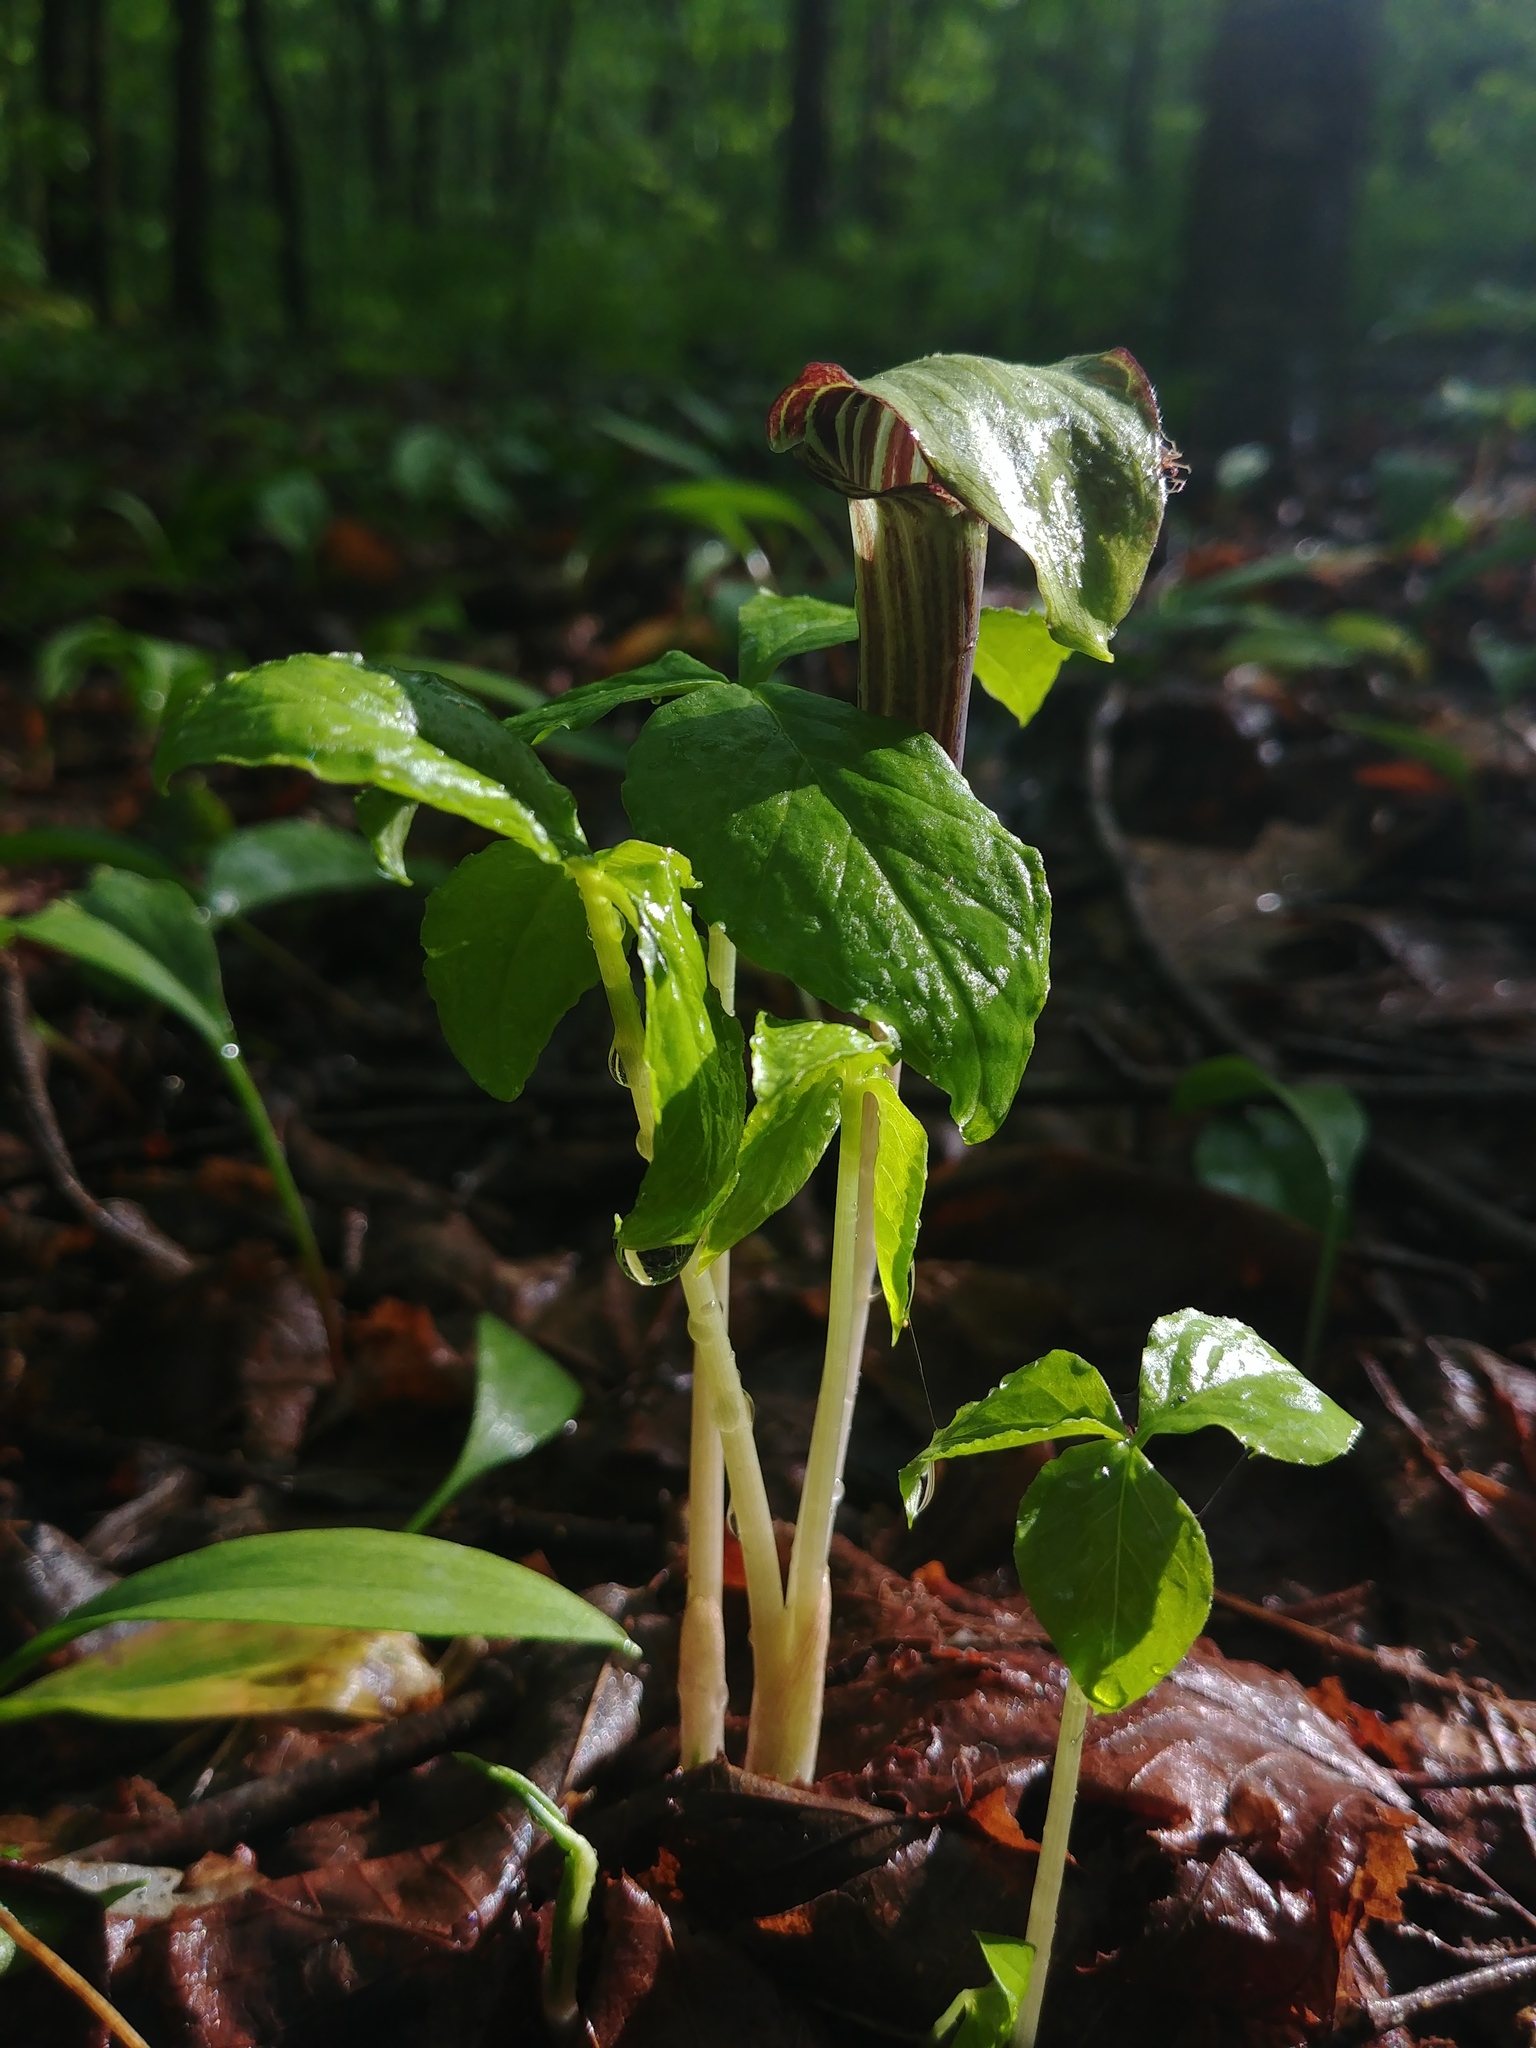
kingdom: Plantae
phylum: Tracheophyta
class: Liliopsida
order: Alismatales
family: Araceae
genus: Arisaema
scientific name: Arisaema triphyllum
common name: Jack-in-the-pulpit
